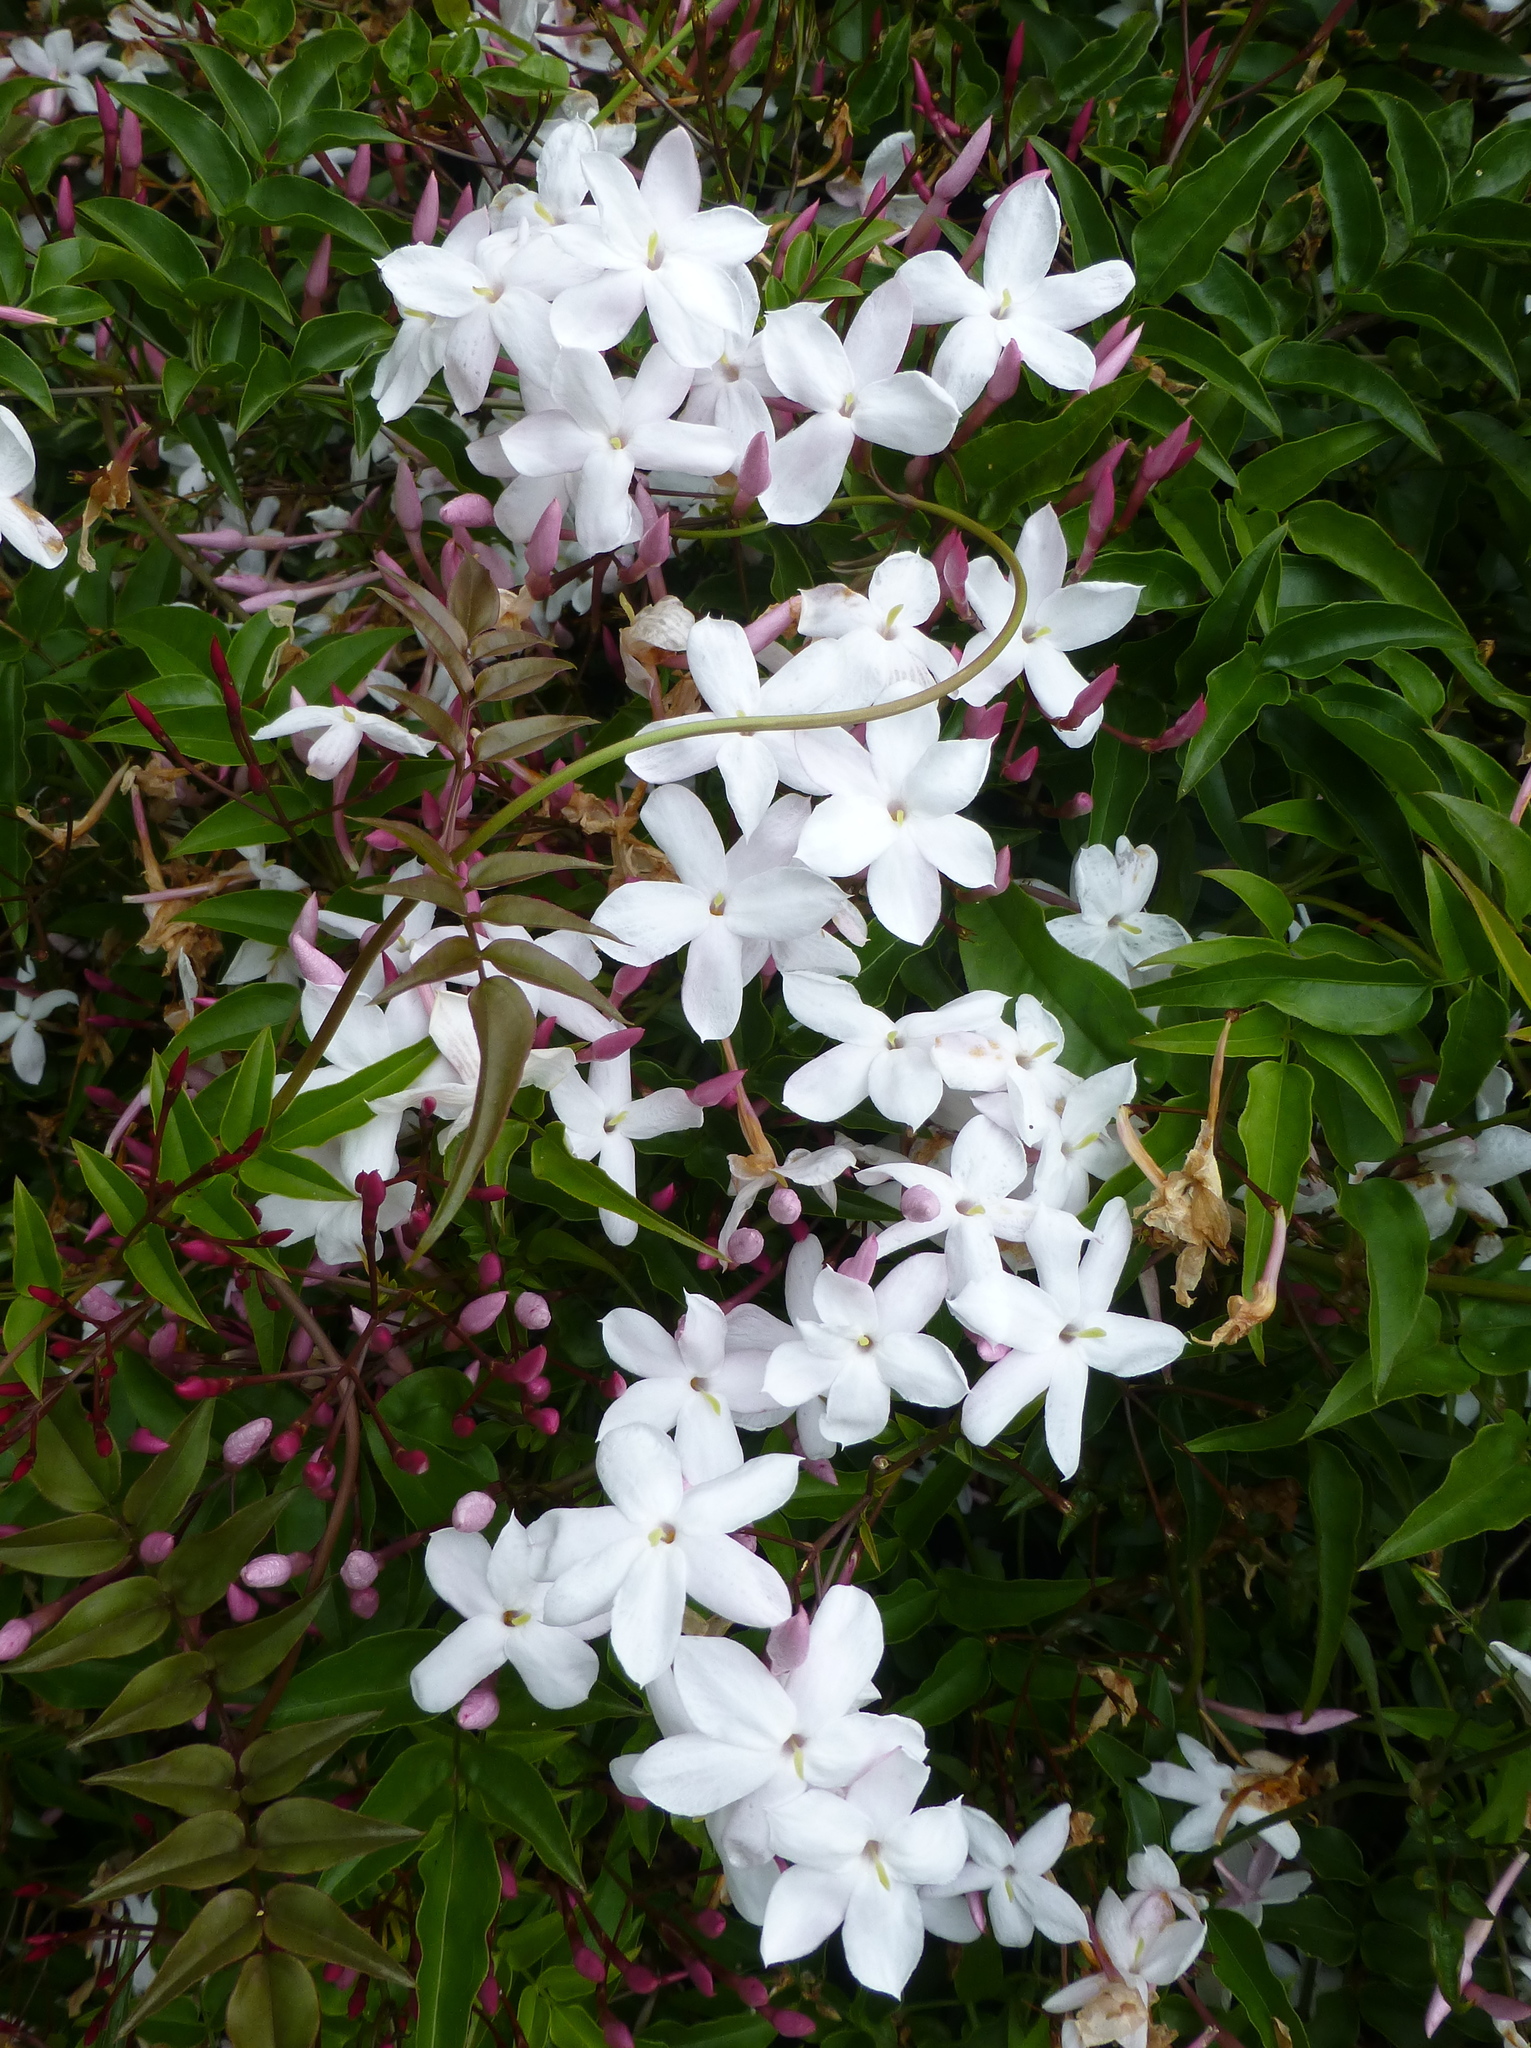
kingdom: Plantae
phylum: Tracheophyta
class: Magnoliopsida
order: Lamiales
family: Oleaceae
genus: Jasminum
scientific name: Jasminum polyanthum
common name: Pink jasmine
